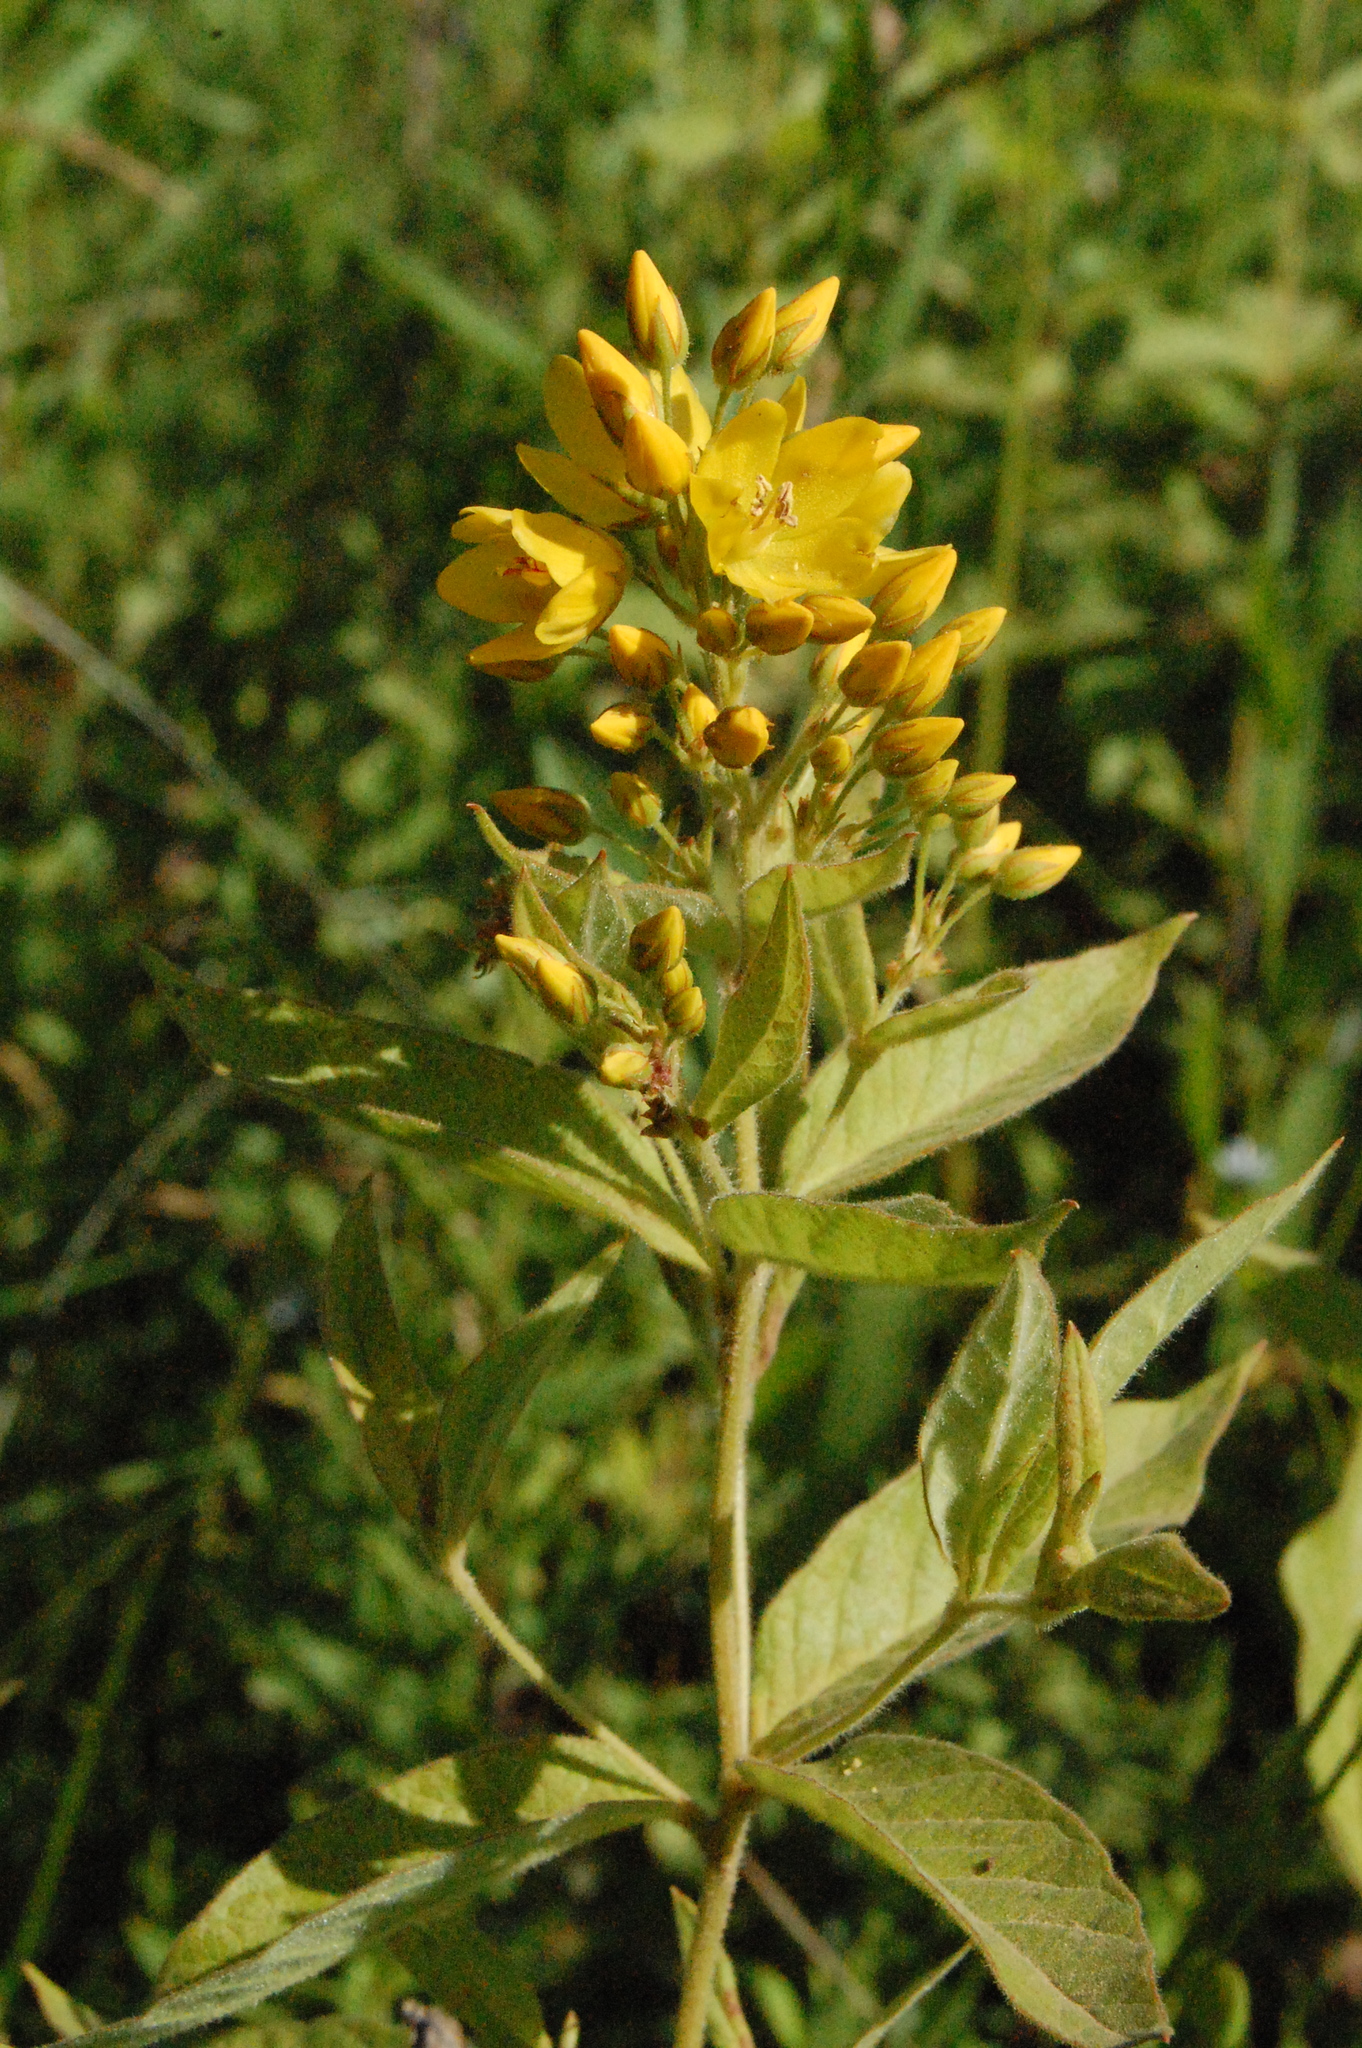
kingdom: Plantae
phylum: Tracheophyta
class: Magnoliopsida
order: Ericales
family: Primulaceae
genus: Lysimachia
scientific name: Lysimachia vulgaris
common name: Yellow loosestrife
